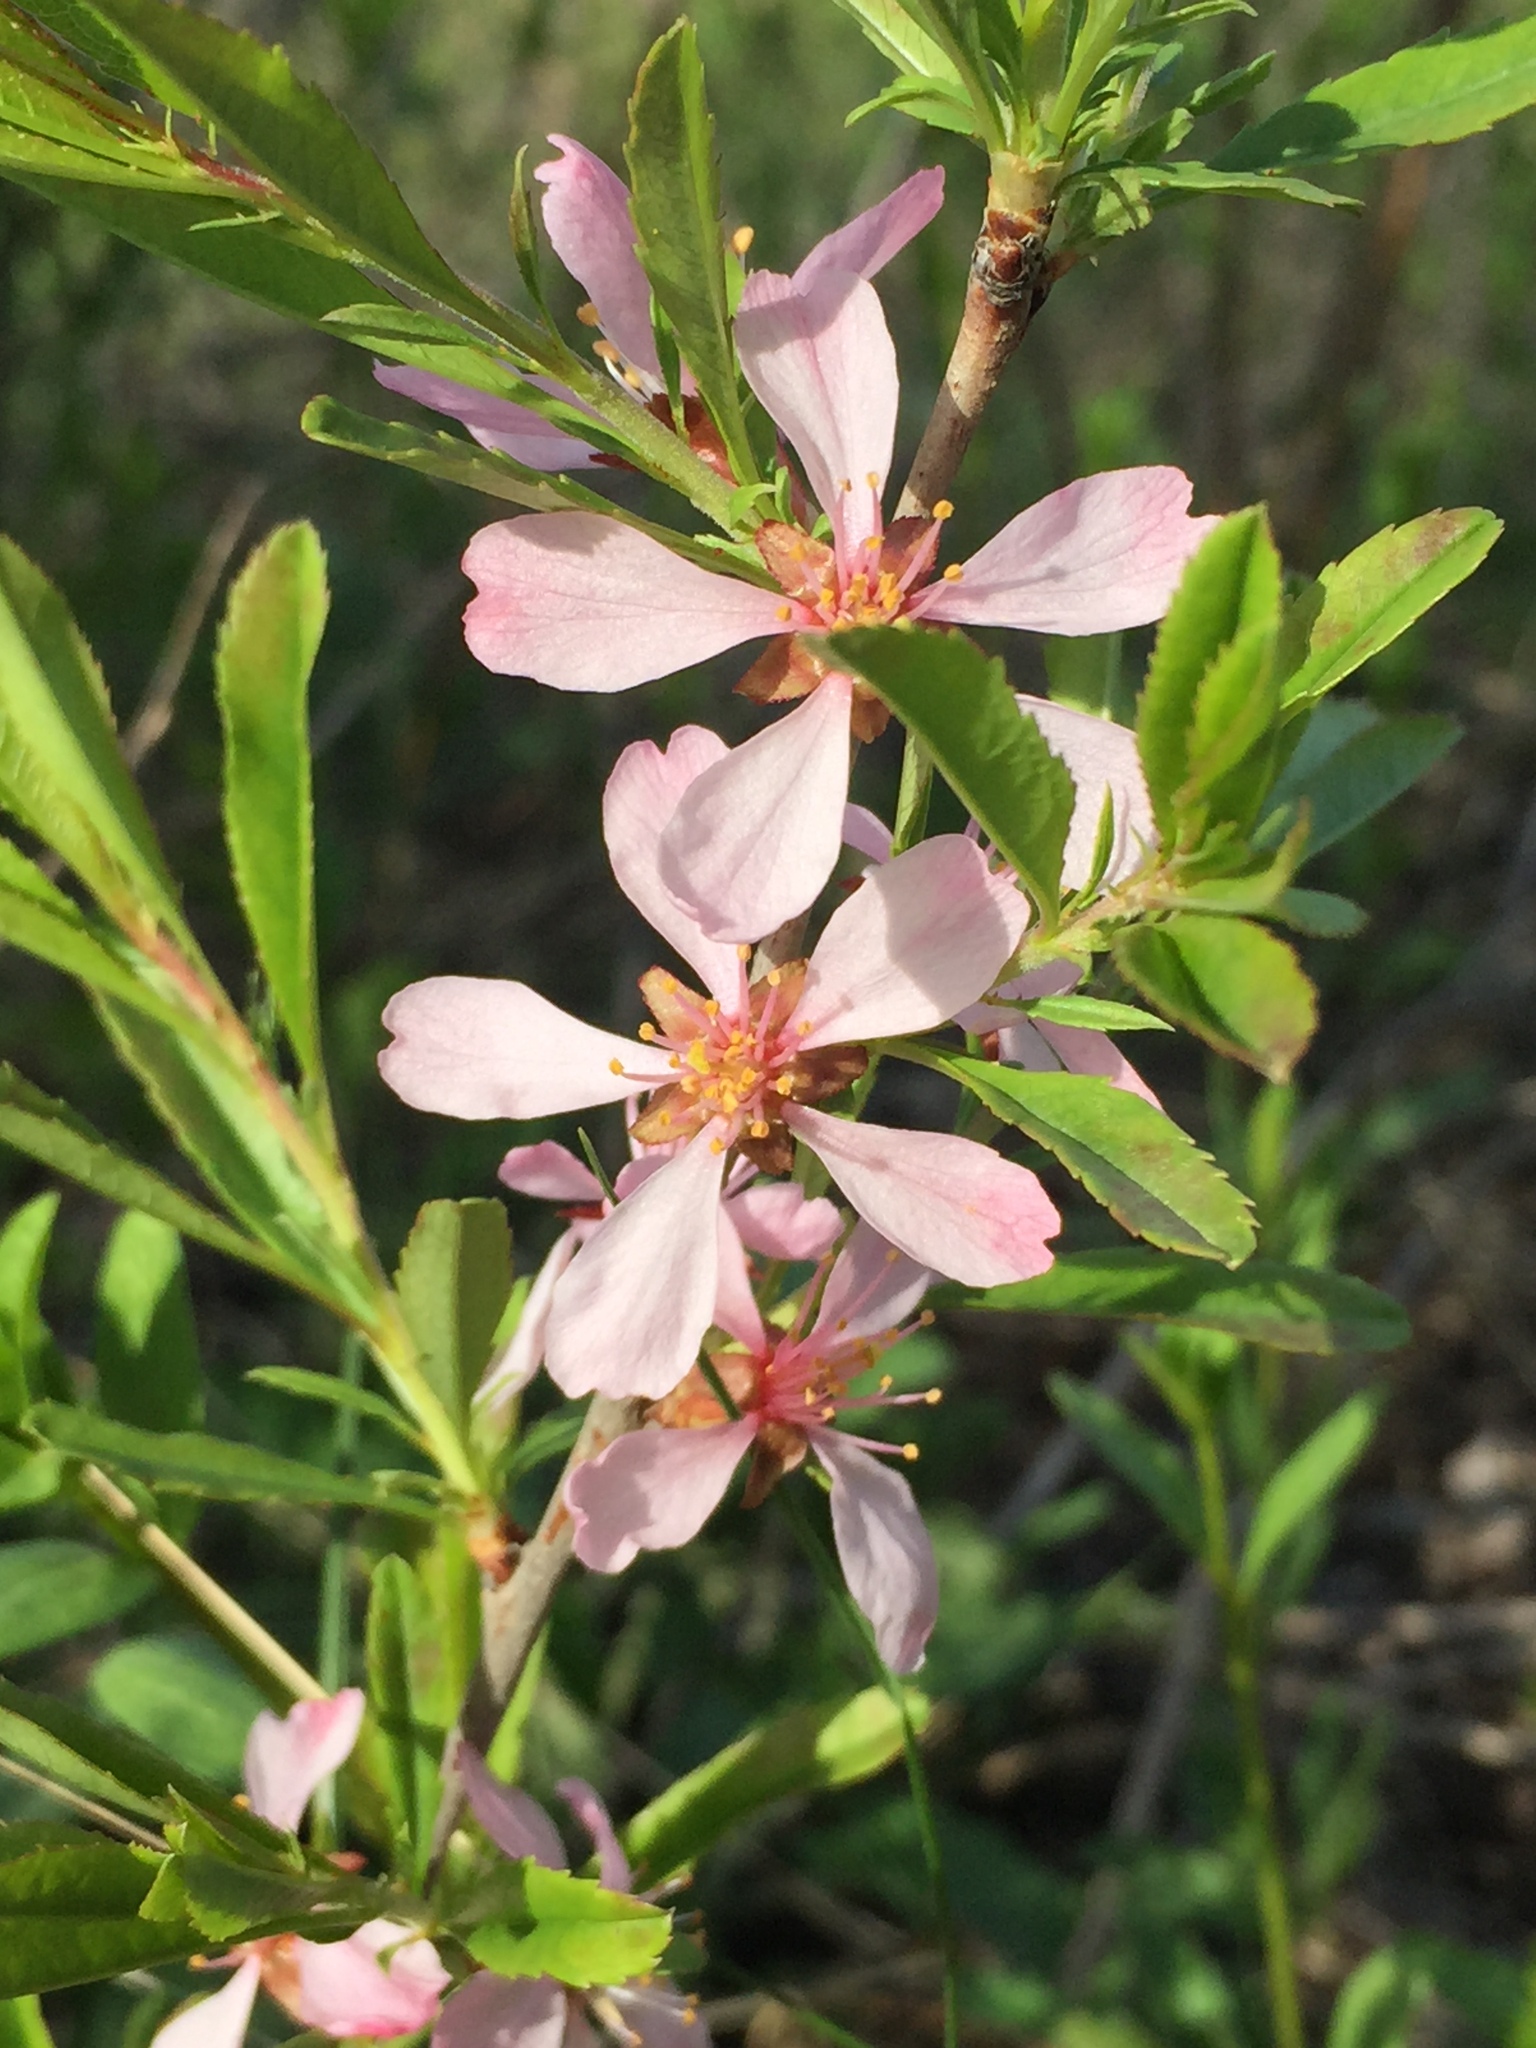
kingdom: Plantae
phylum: Tracheophyta
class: Magnoliopsida
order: Rosales
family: Rosaceae
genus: Prunus
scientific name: Prunus tenella
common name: Dwarf russian almond
